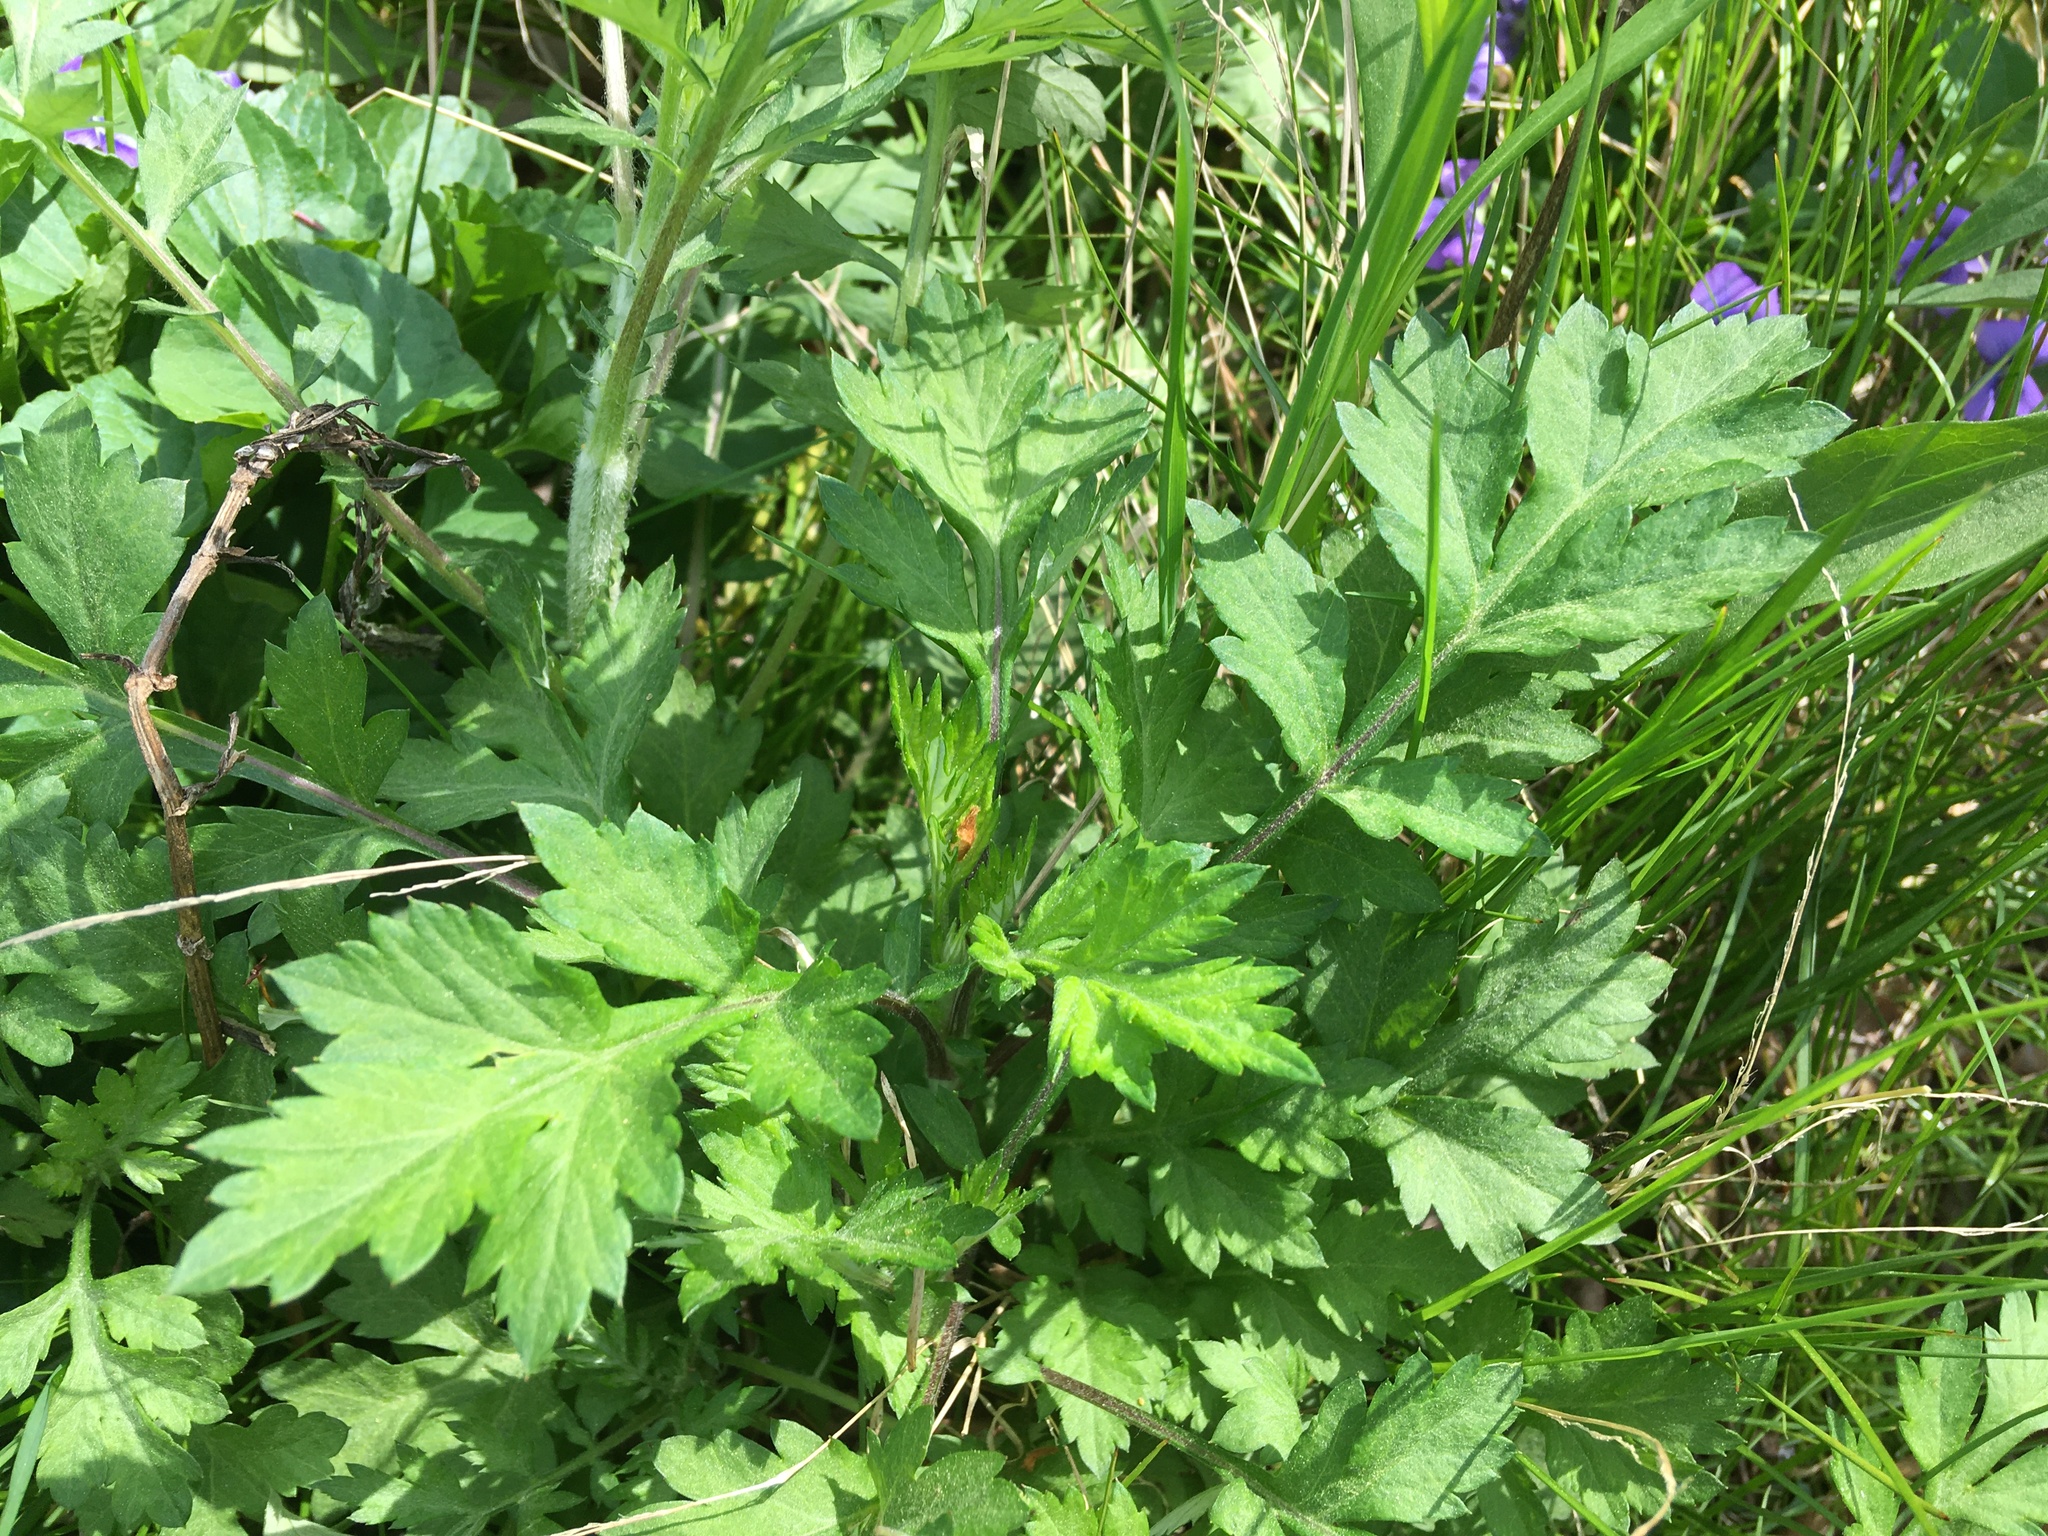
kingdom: Plantae
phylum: Tracheophyta
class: Magnoliopsida
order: Asterales
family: Asteraceae
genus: Artemisia
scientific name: Artemisia vulgaris
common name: Mugwort
